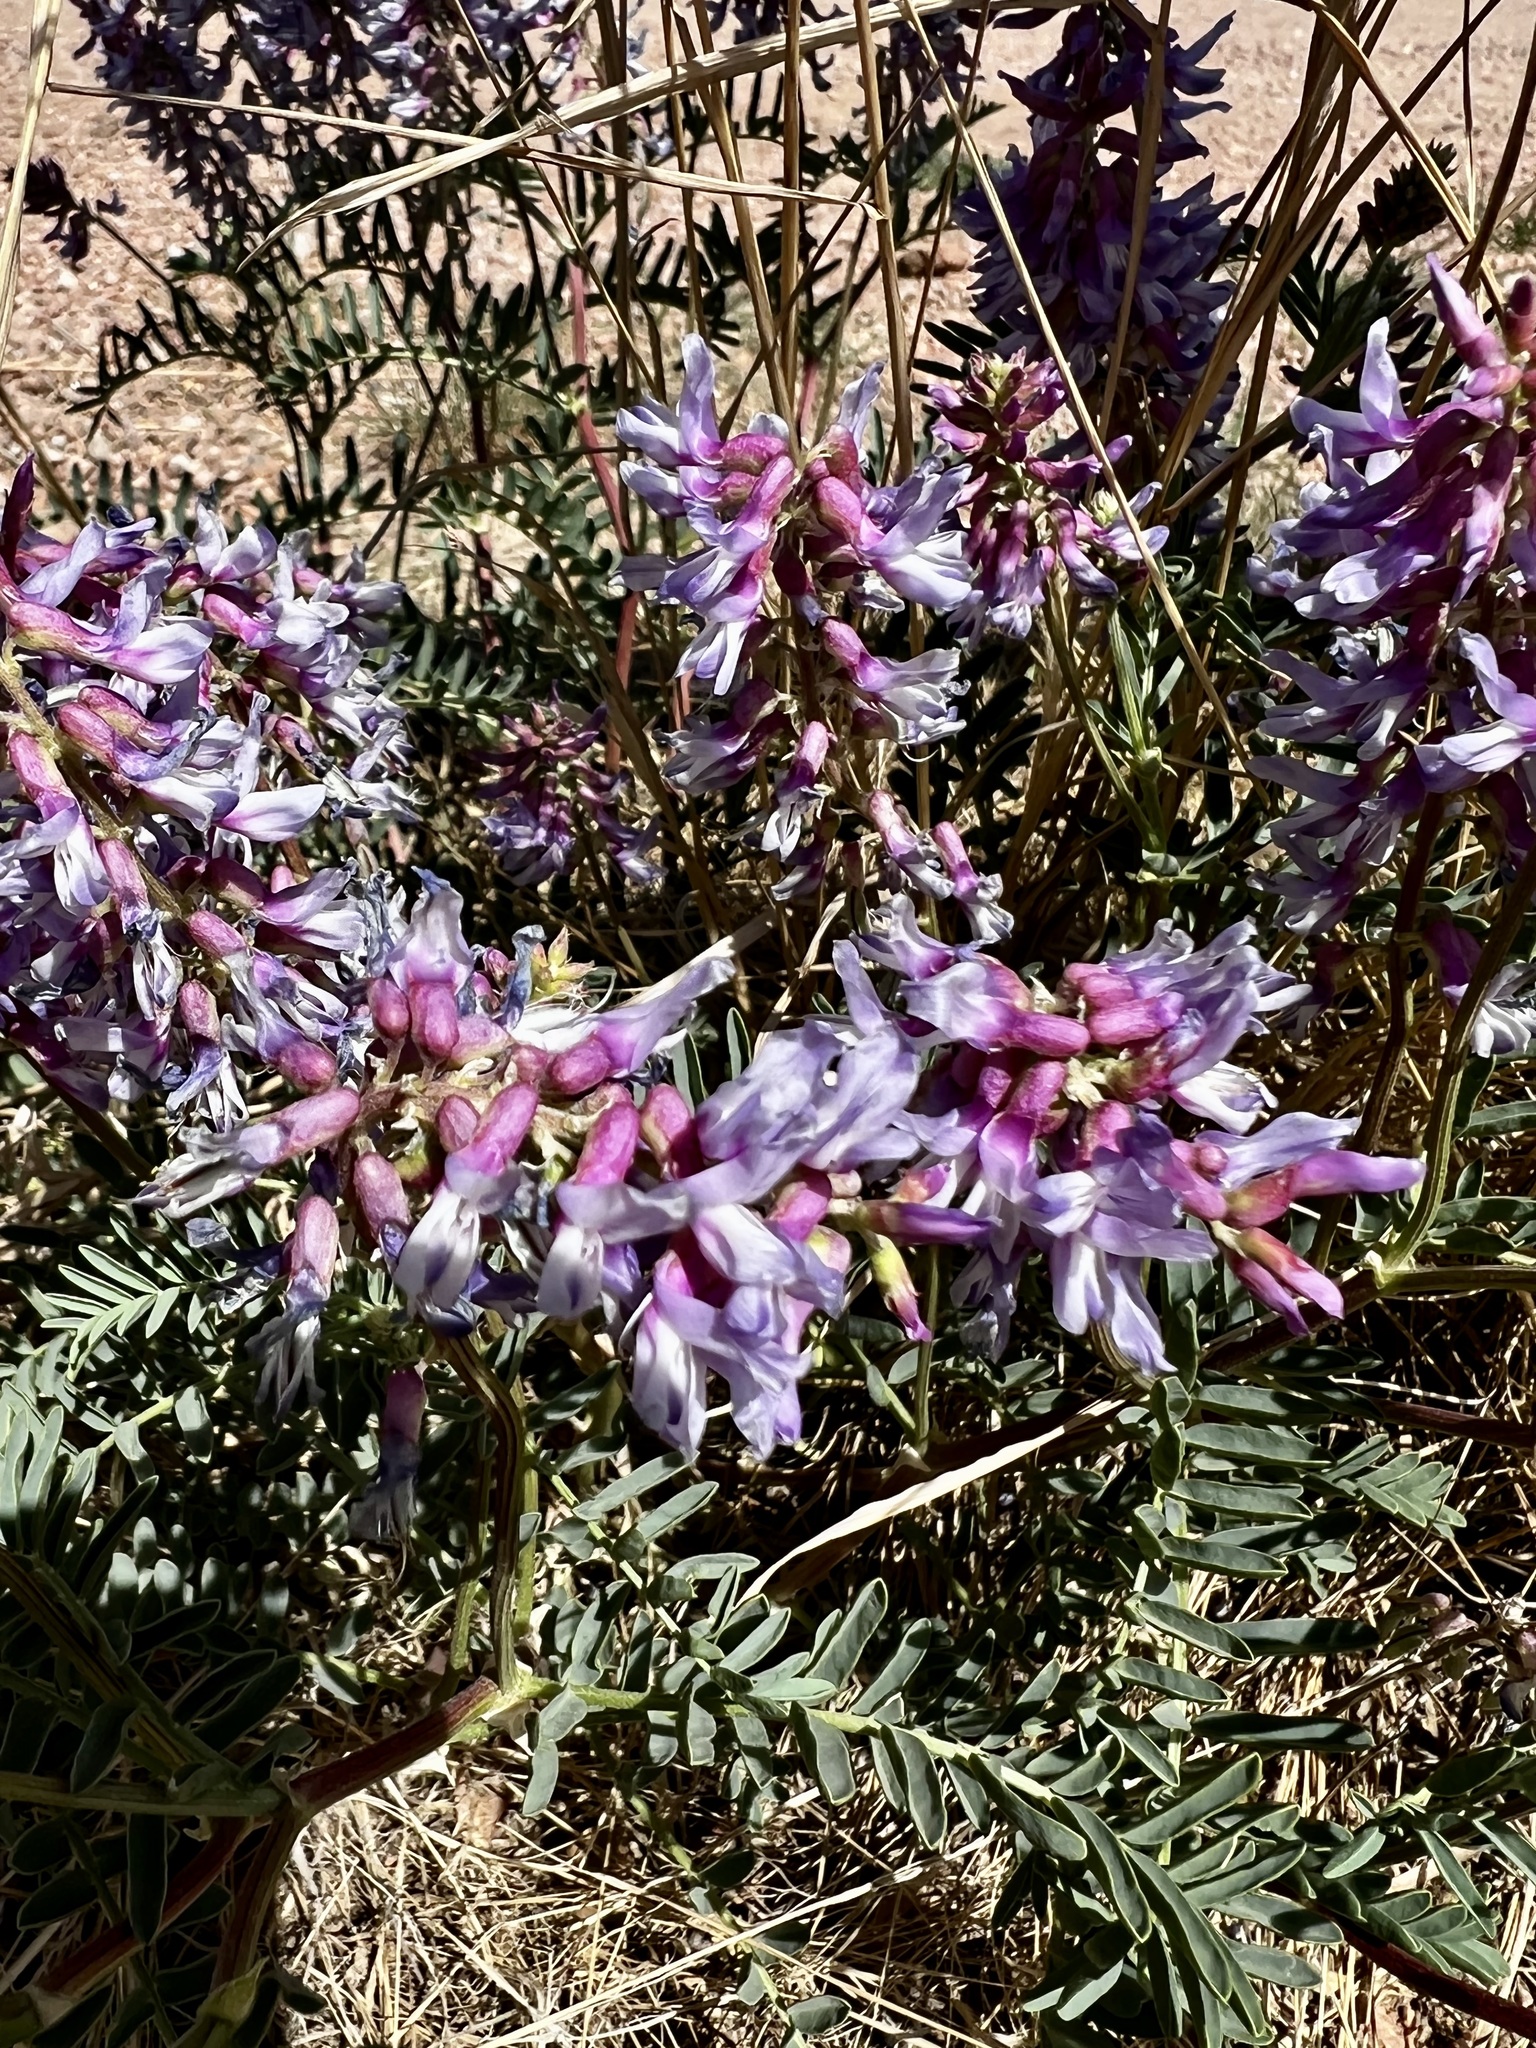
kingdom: Plantae
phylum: Tracheophyta
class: Magnoliopsida
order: Fabales
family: Fabaceae
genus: Astragalus
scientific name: Astragalus bisulcatus
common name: Two-groove milk-vetch
